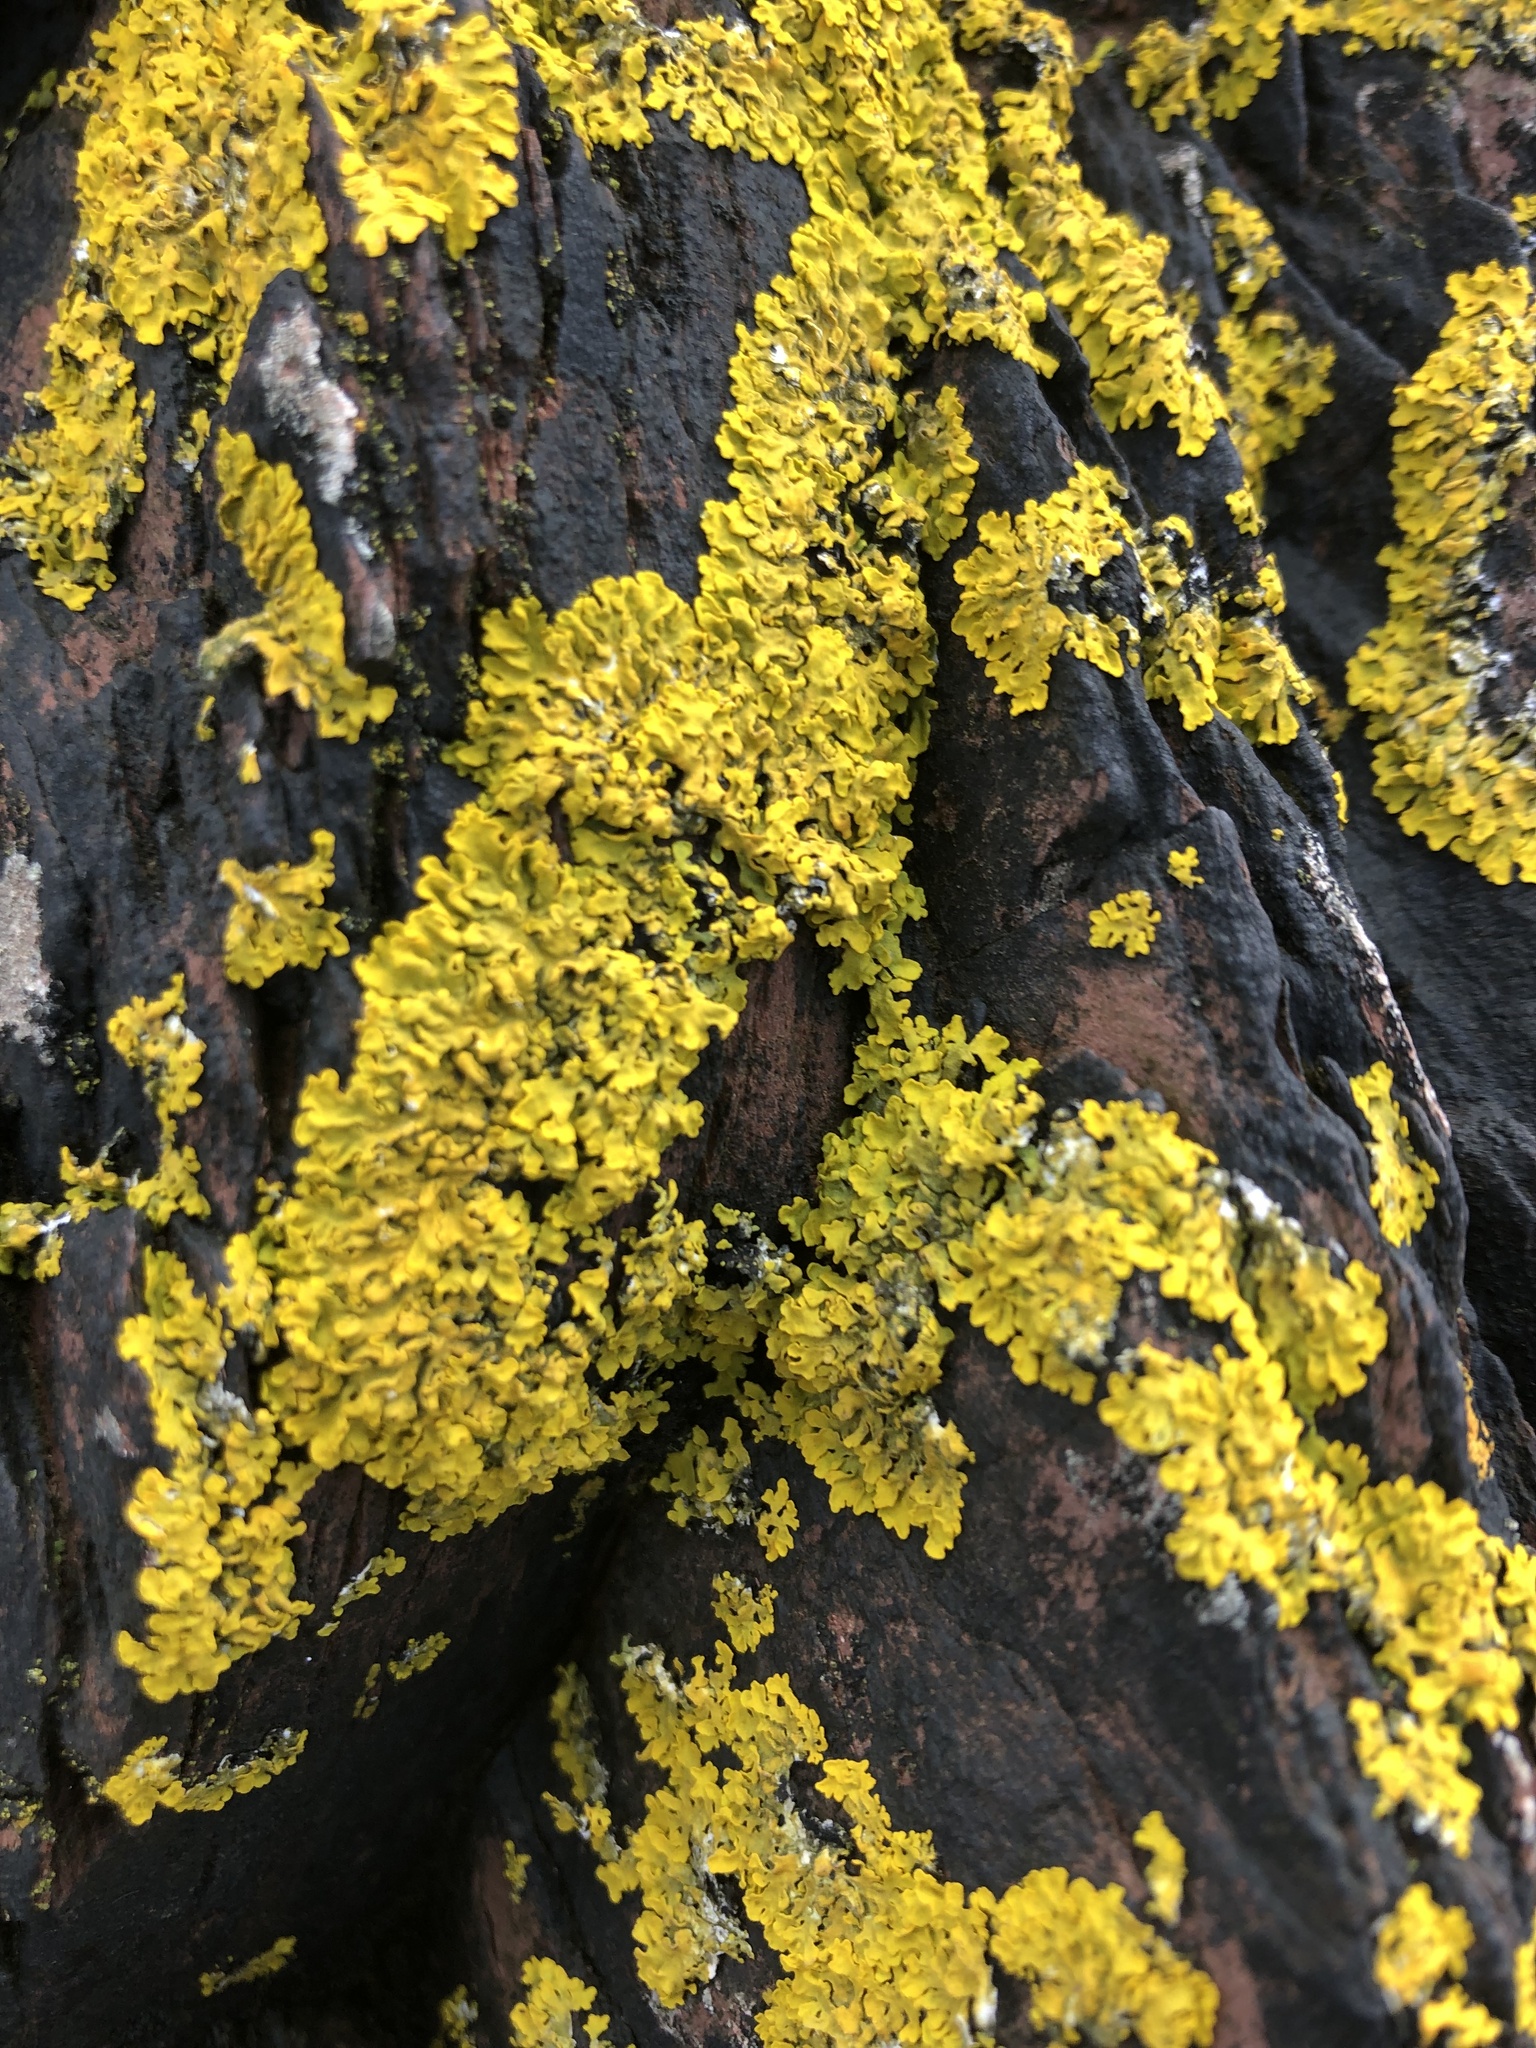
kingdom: Fungi
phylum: Ascomycota
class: Lecanoromycetes
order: Teloschistales
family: Teloschistaceae
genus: Xanthoria
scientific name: Xanthoria parietina
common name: Common orange lichen
